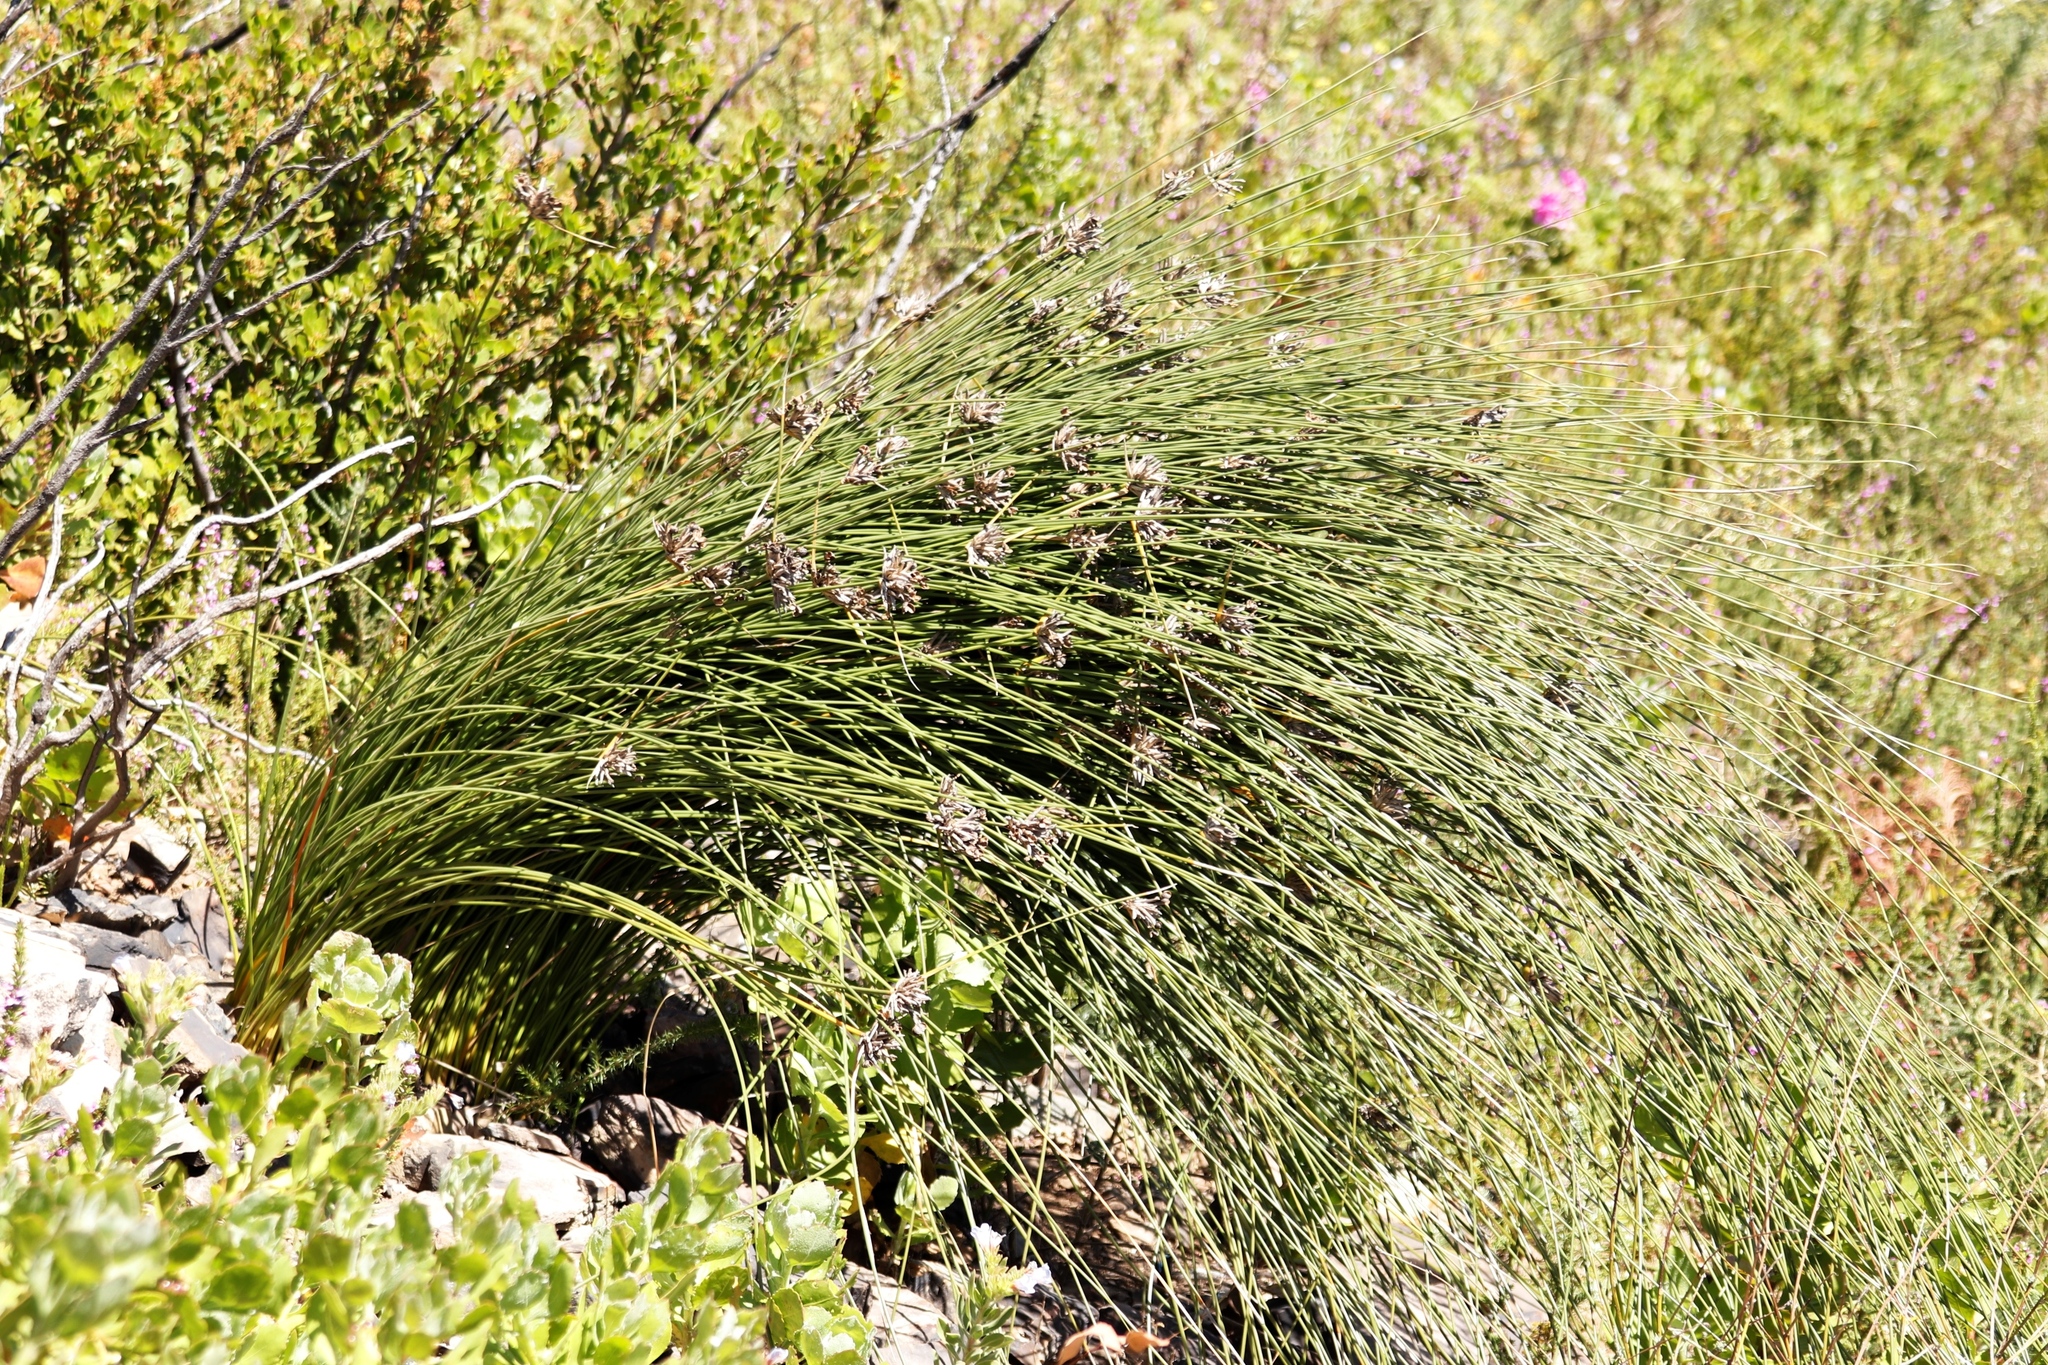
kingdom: Plantae
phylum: Tracheophyta
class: Liliopsida
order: Asparagales
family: Iridaceae
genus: Bobartia
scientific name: Bobartia indica
